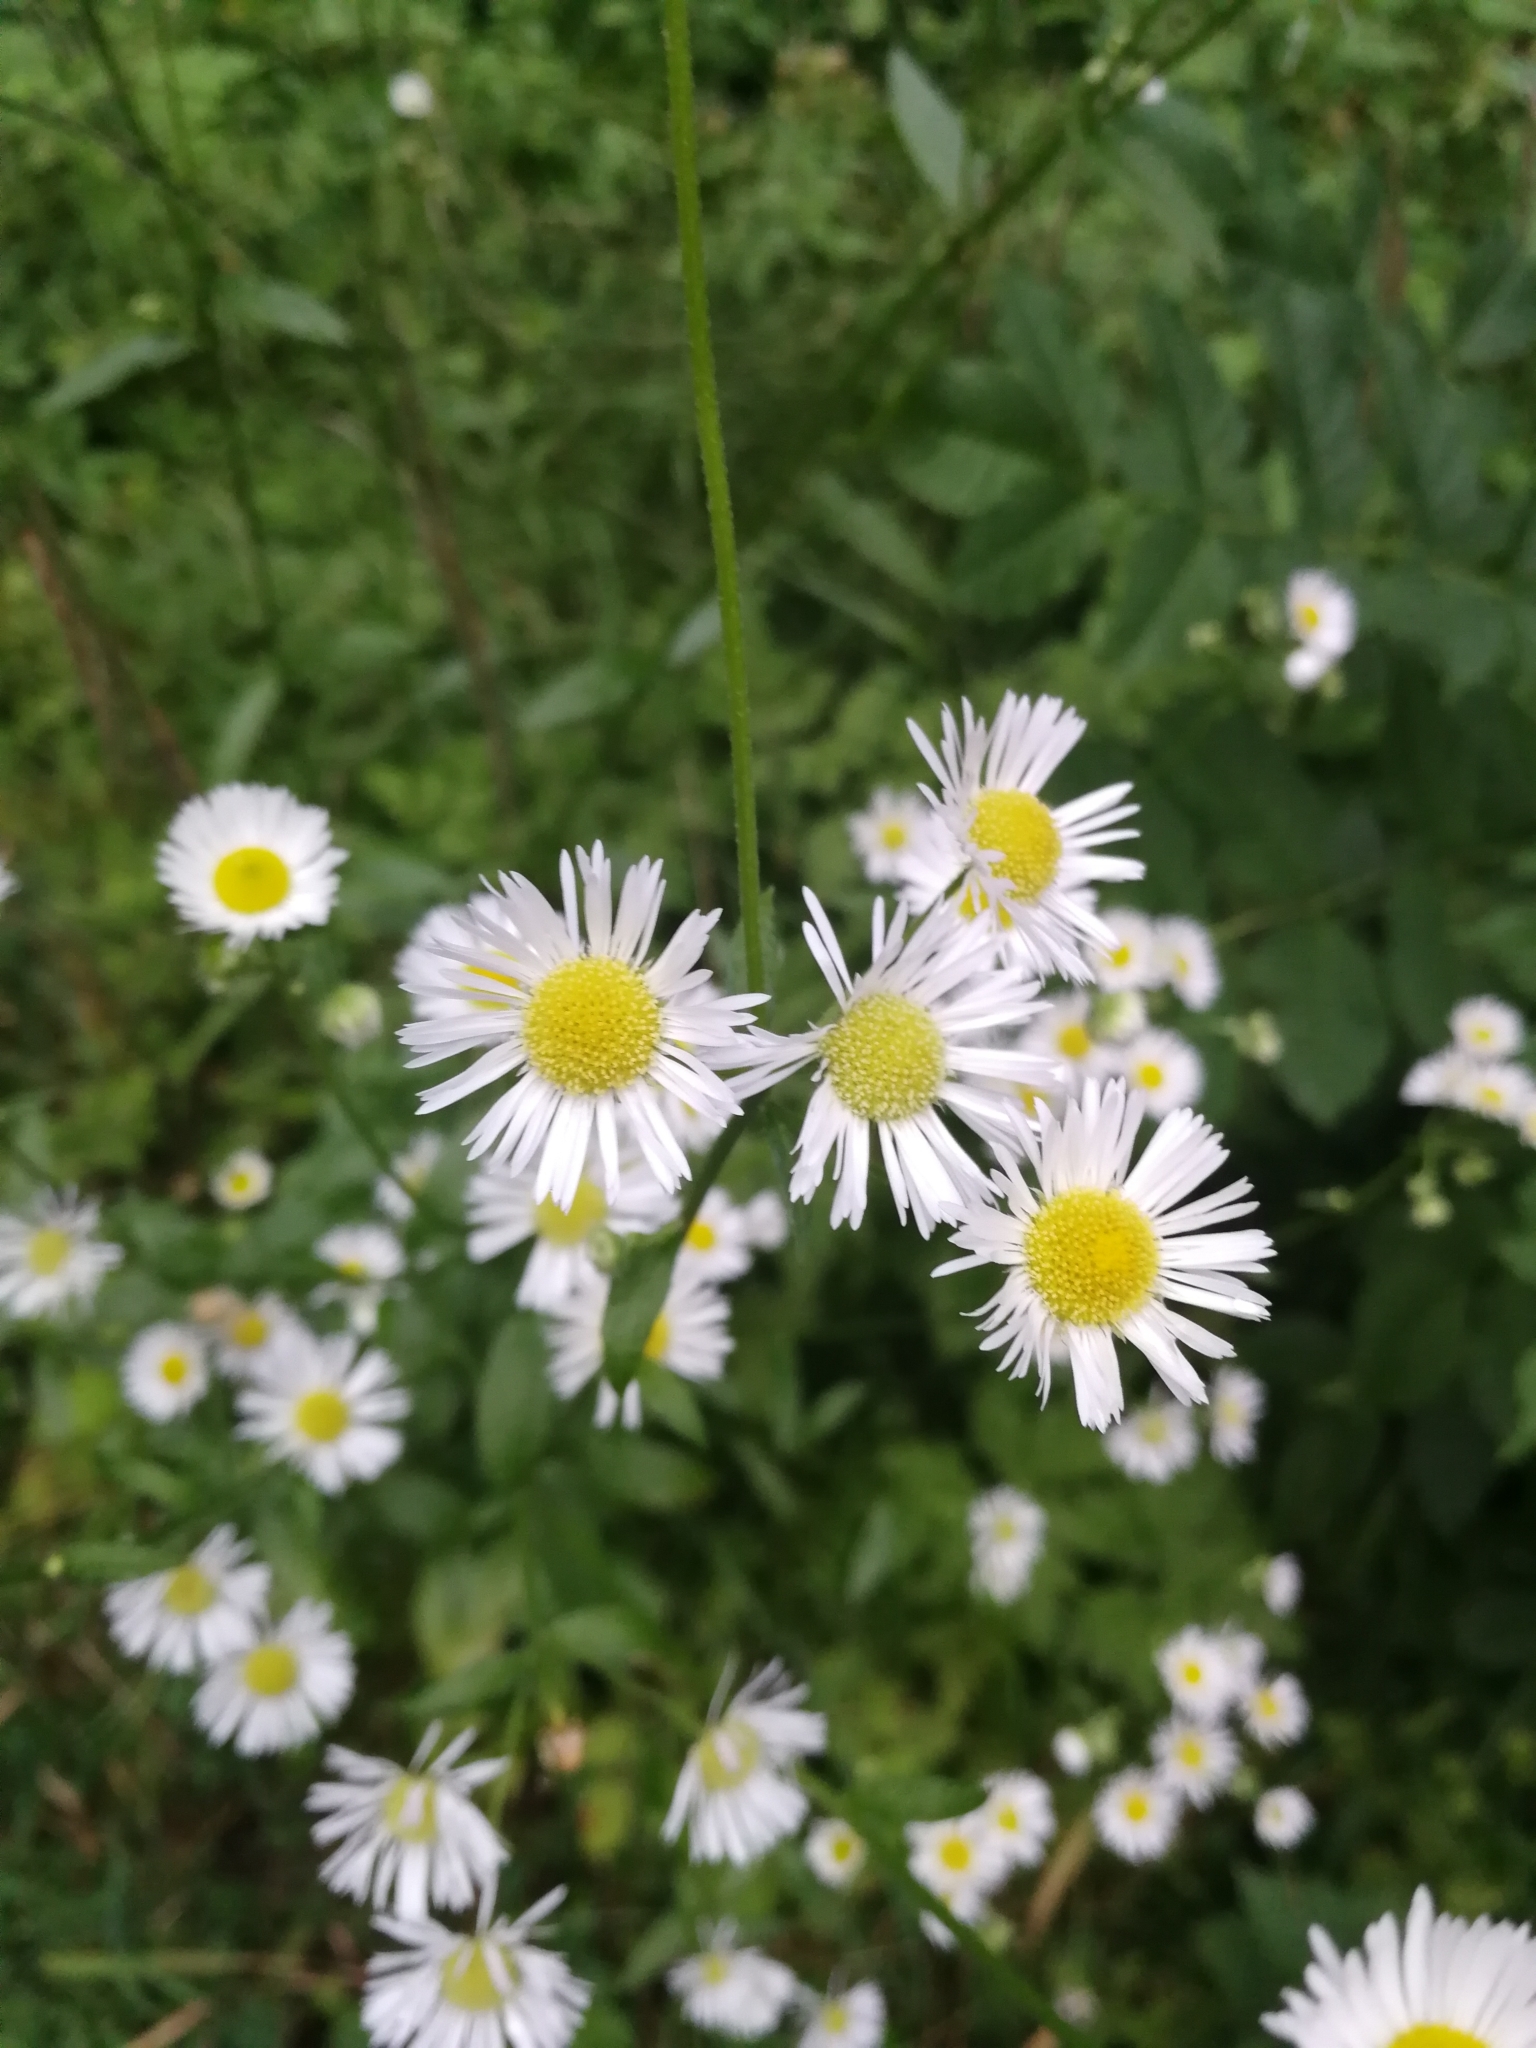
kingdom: Plantae
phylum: Tracheophyta
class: Magnoliopsida
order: Asterales
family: Asteraceae
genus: Erigeron
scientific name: Erigeron annuus
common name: Tall fleabane
